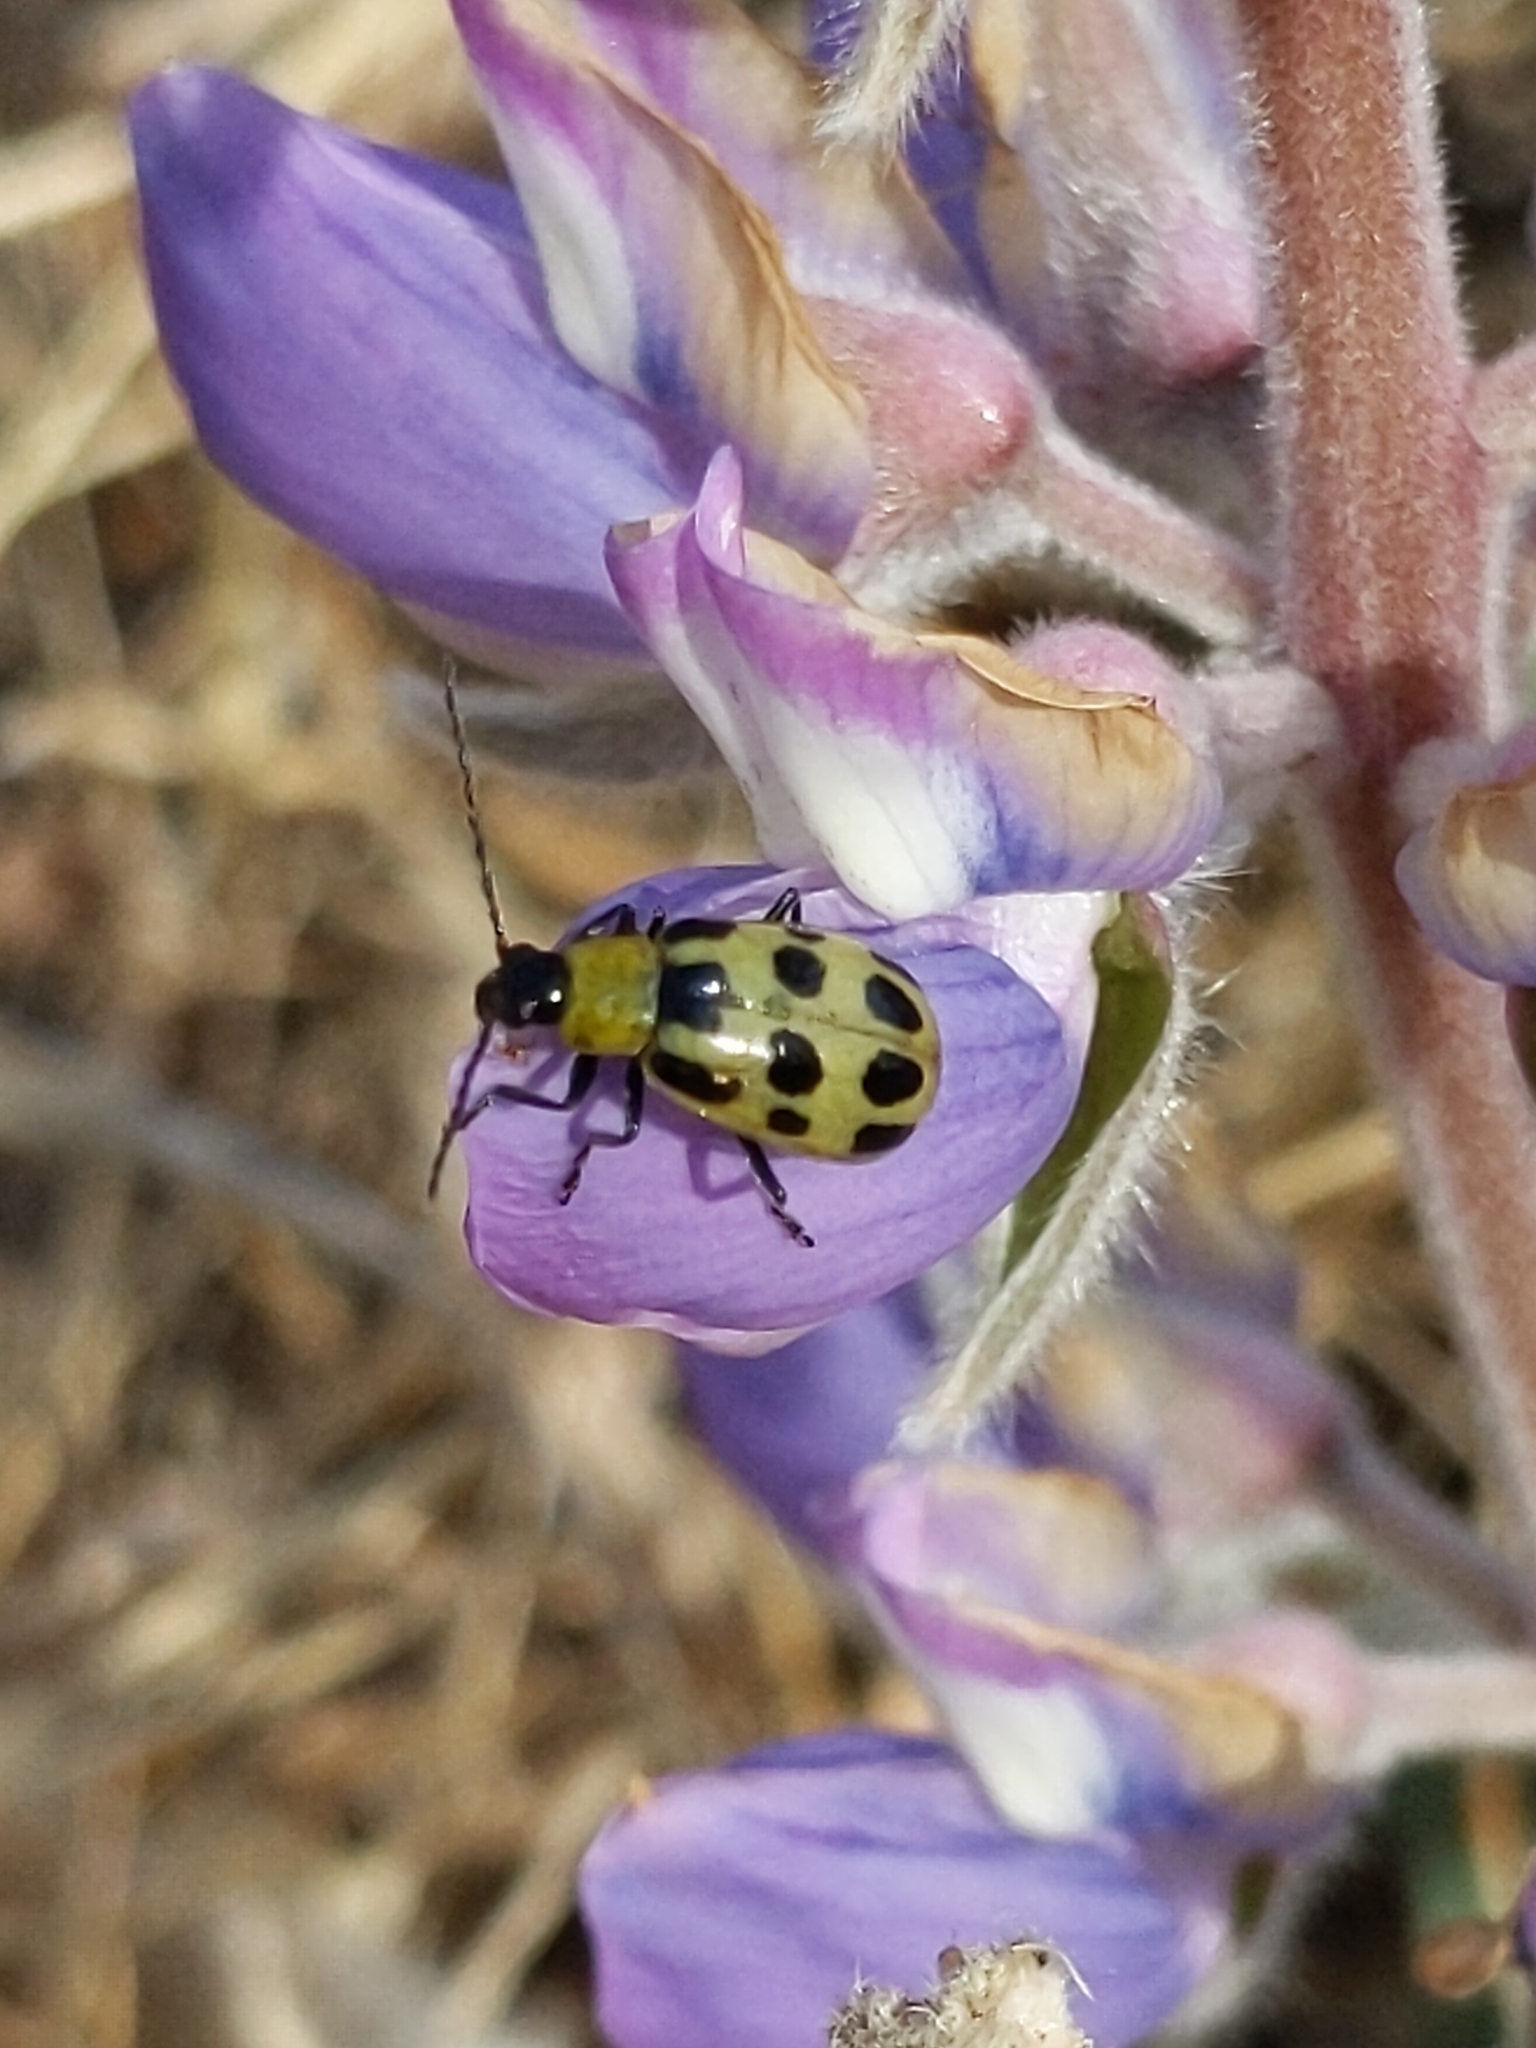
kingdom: Animalia
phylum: Arthropoda
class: Insecta
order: Coleoptera
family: Chrysomelidae
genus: Diabrotica
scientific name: Diabrotica undecimpunctata
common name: Spotted cucumber beetle
